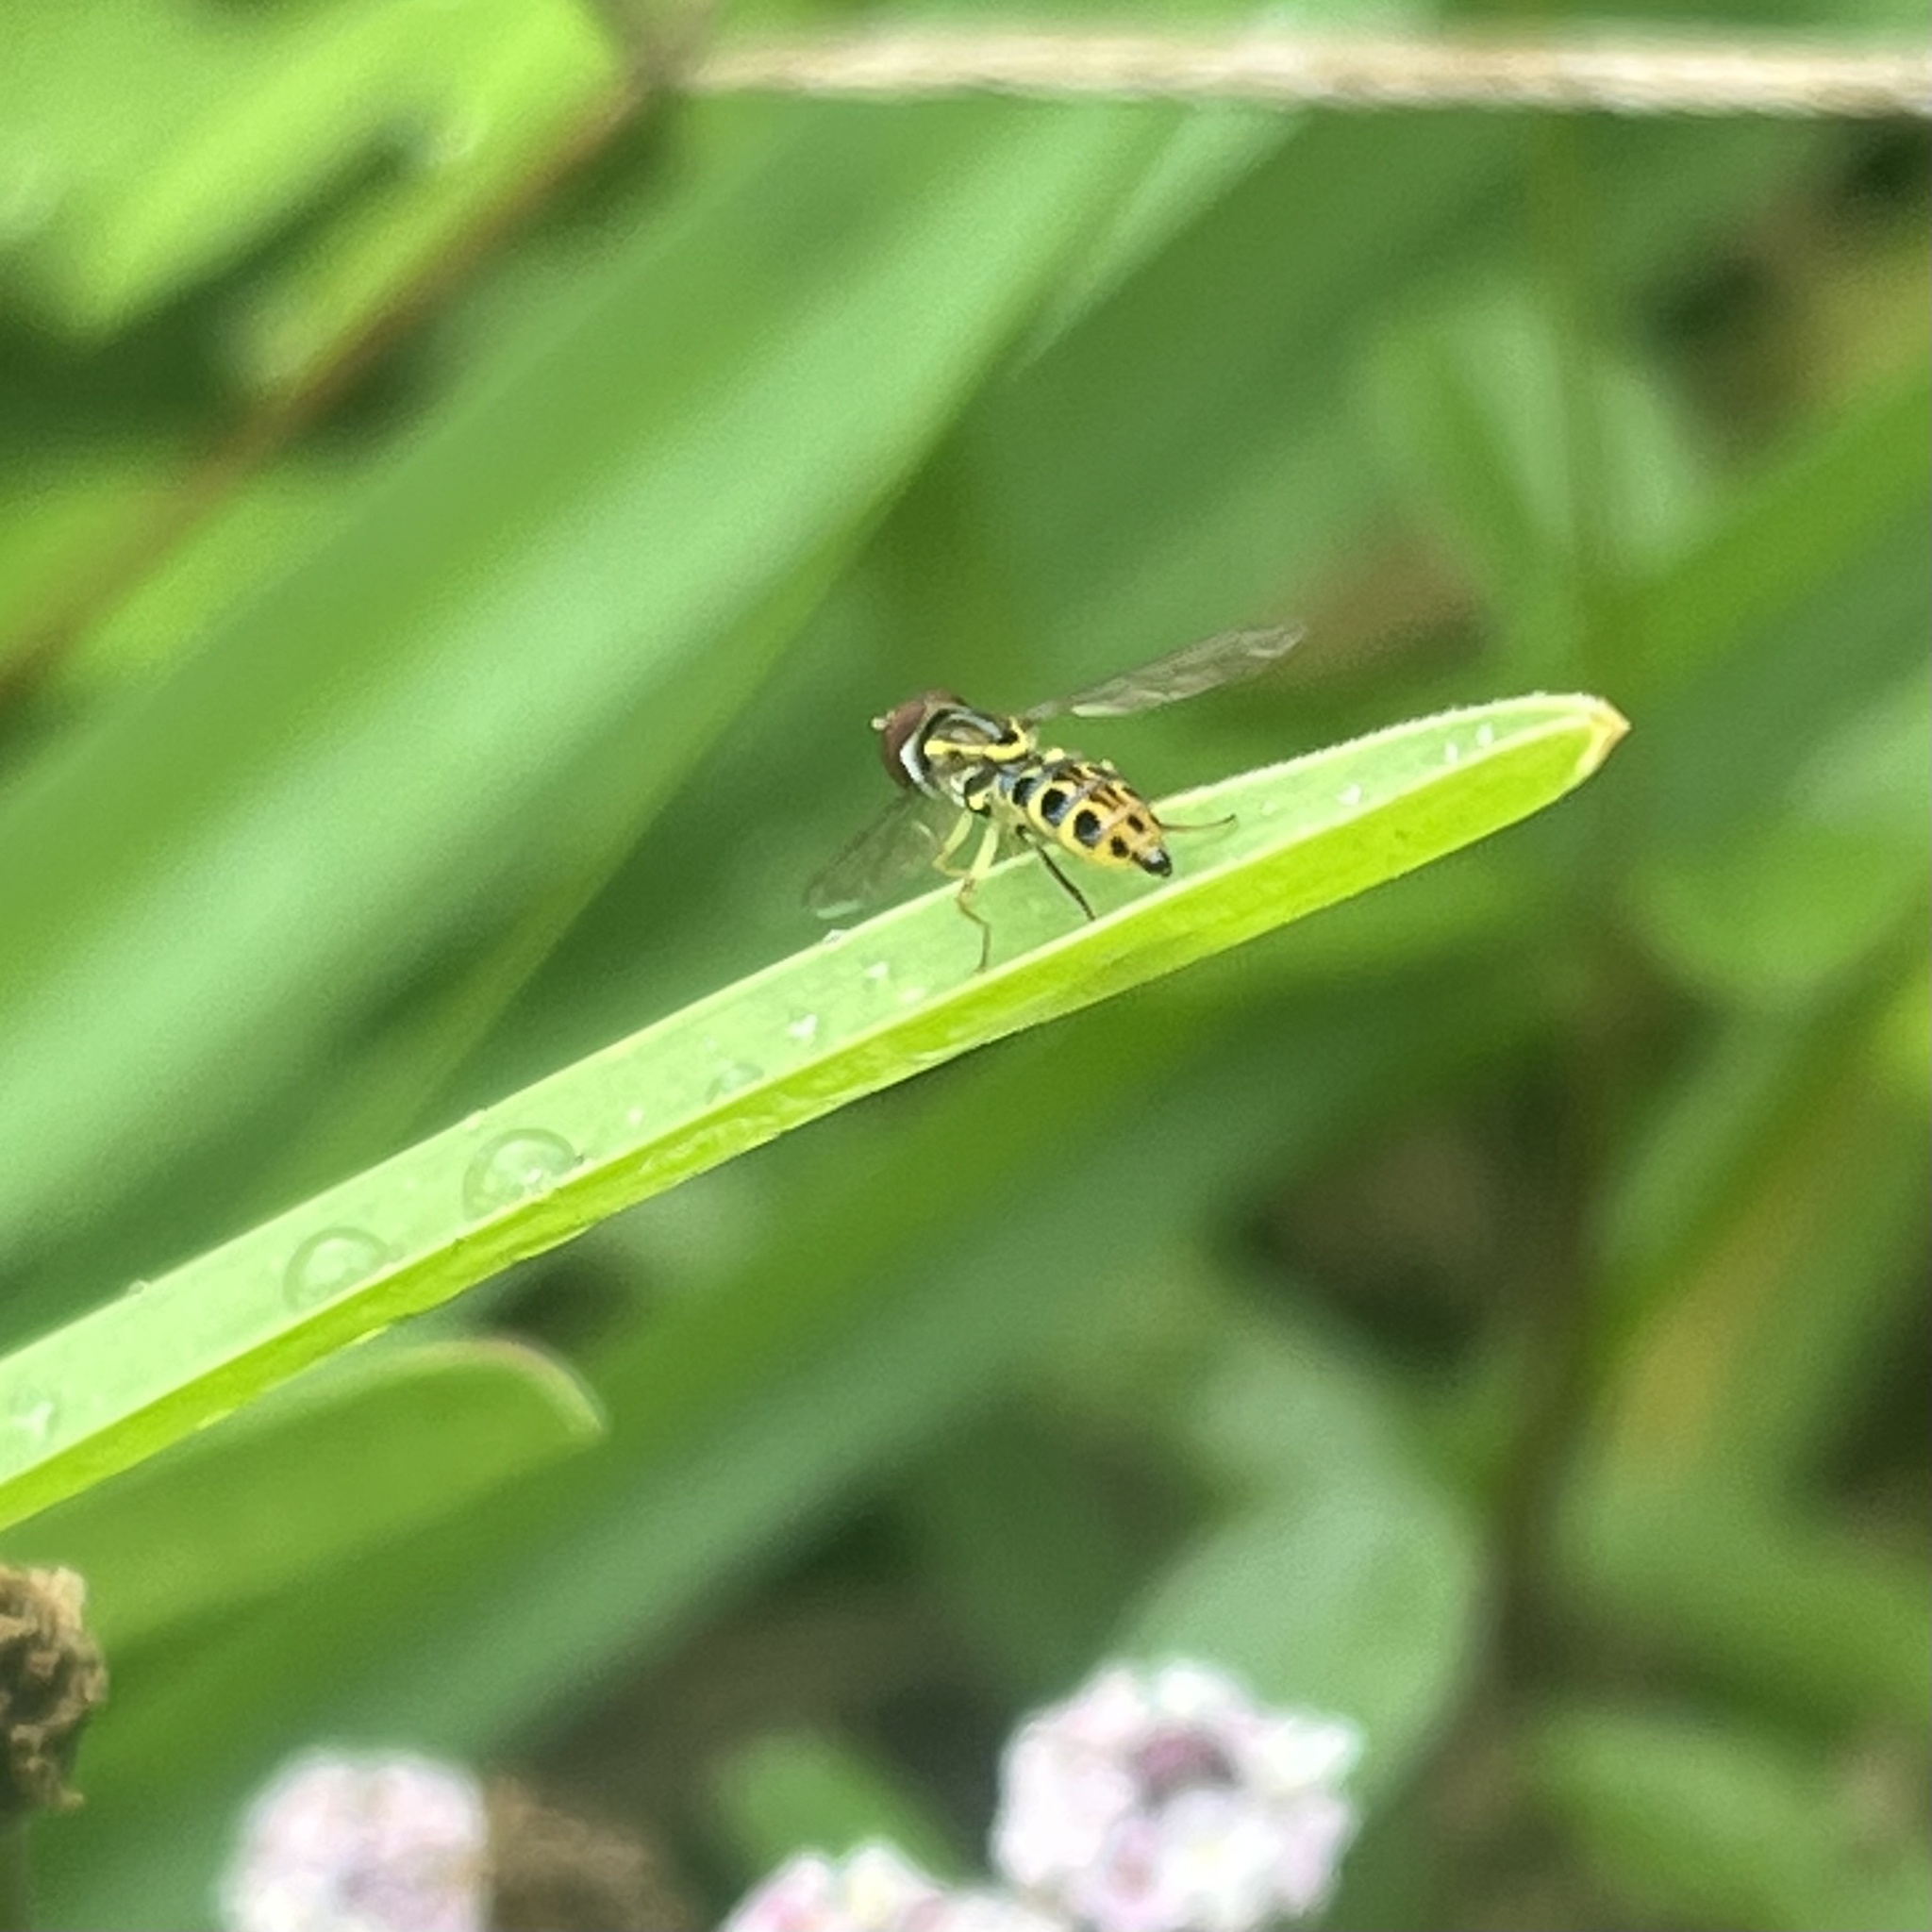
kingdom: Animalia
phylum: Arthropoda
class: Insecta
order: Diptera
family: Syrphidae
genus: Toxomerus
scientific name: Toxomerus arcifer
